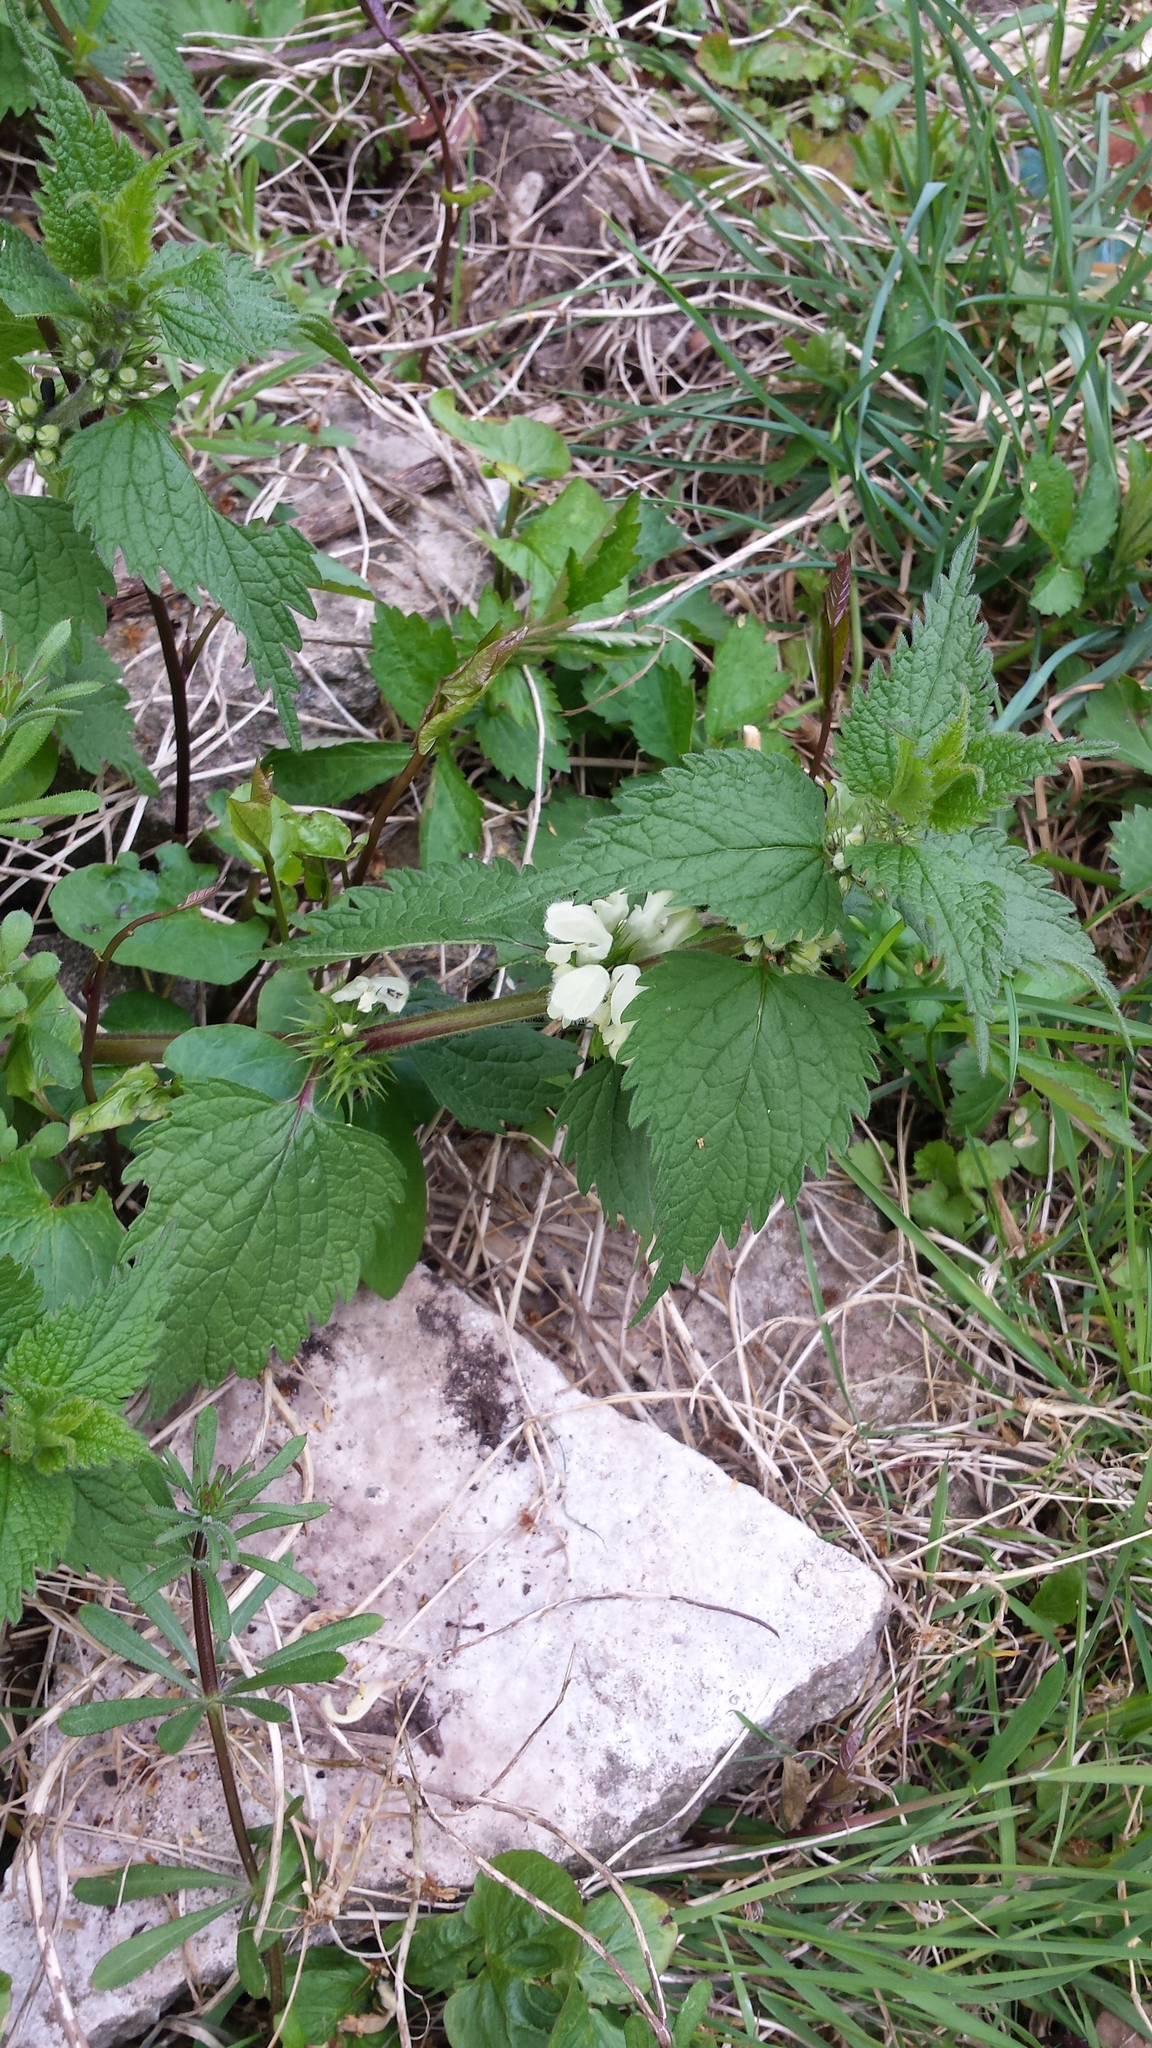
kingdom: Plantae
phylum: Tracheophyta
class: Magnoliopsida
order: Lamiales
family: Lamiaceae
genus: Lamium
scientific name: Lamium album
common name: White dead-nettle
